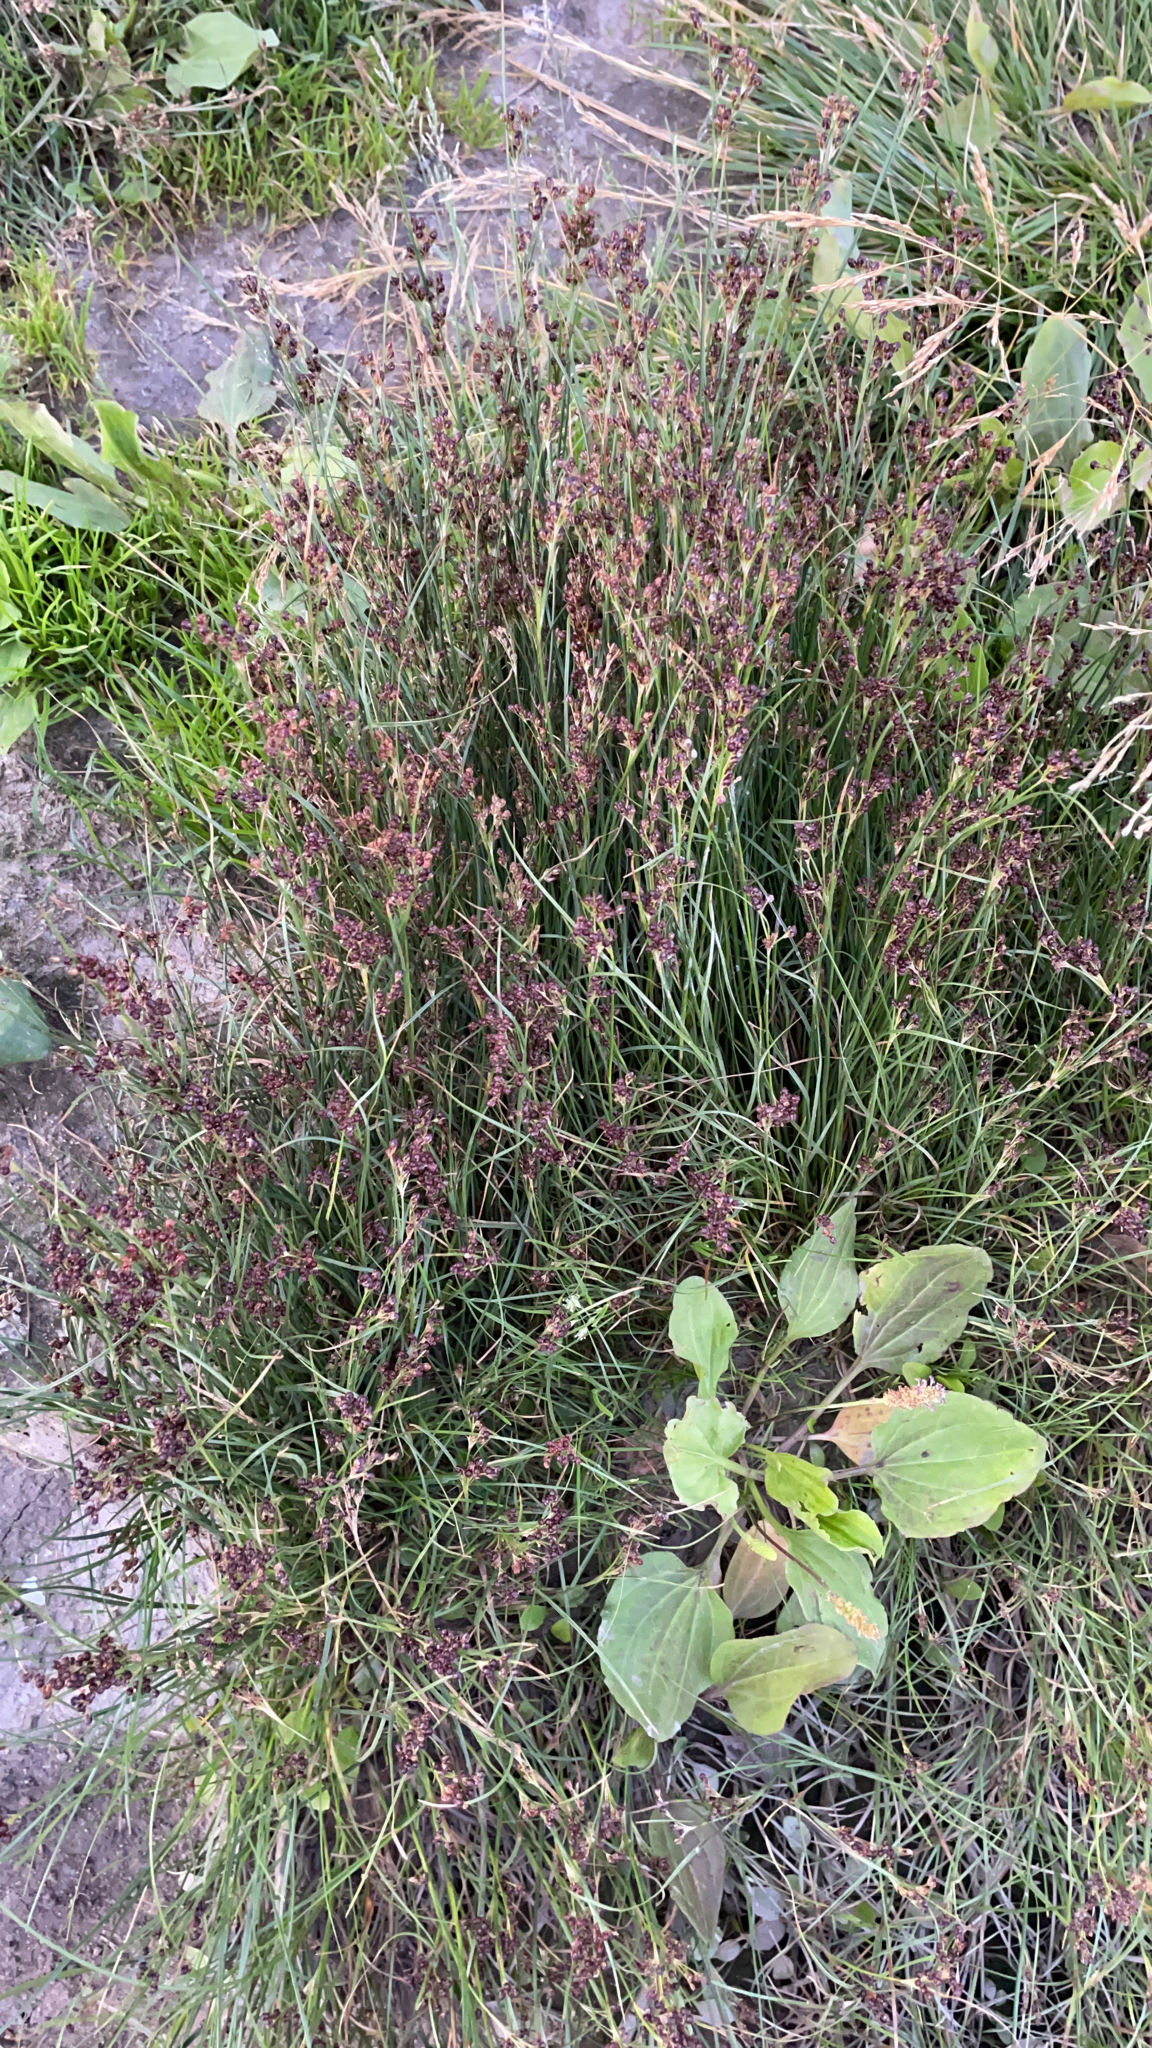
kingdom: Plantae
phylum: Tracheophyta
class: Liliopsida
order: Poales
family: Juncaceae
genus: Juncus
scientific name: Juncus compressus
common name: Round-fruited rush
